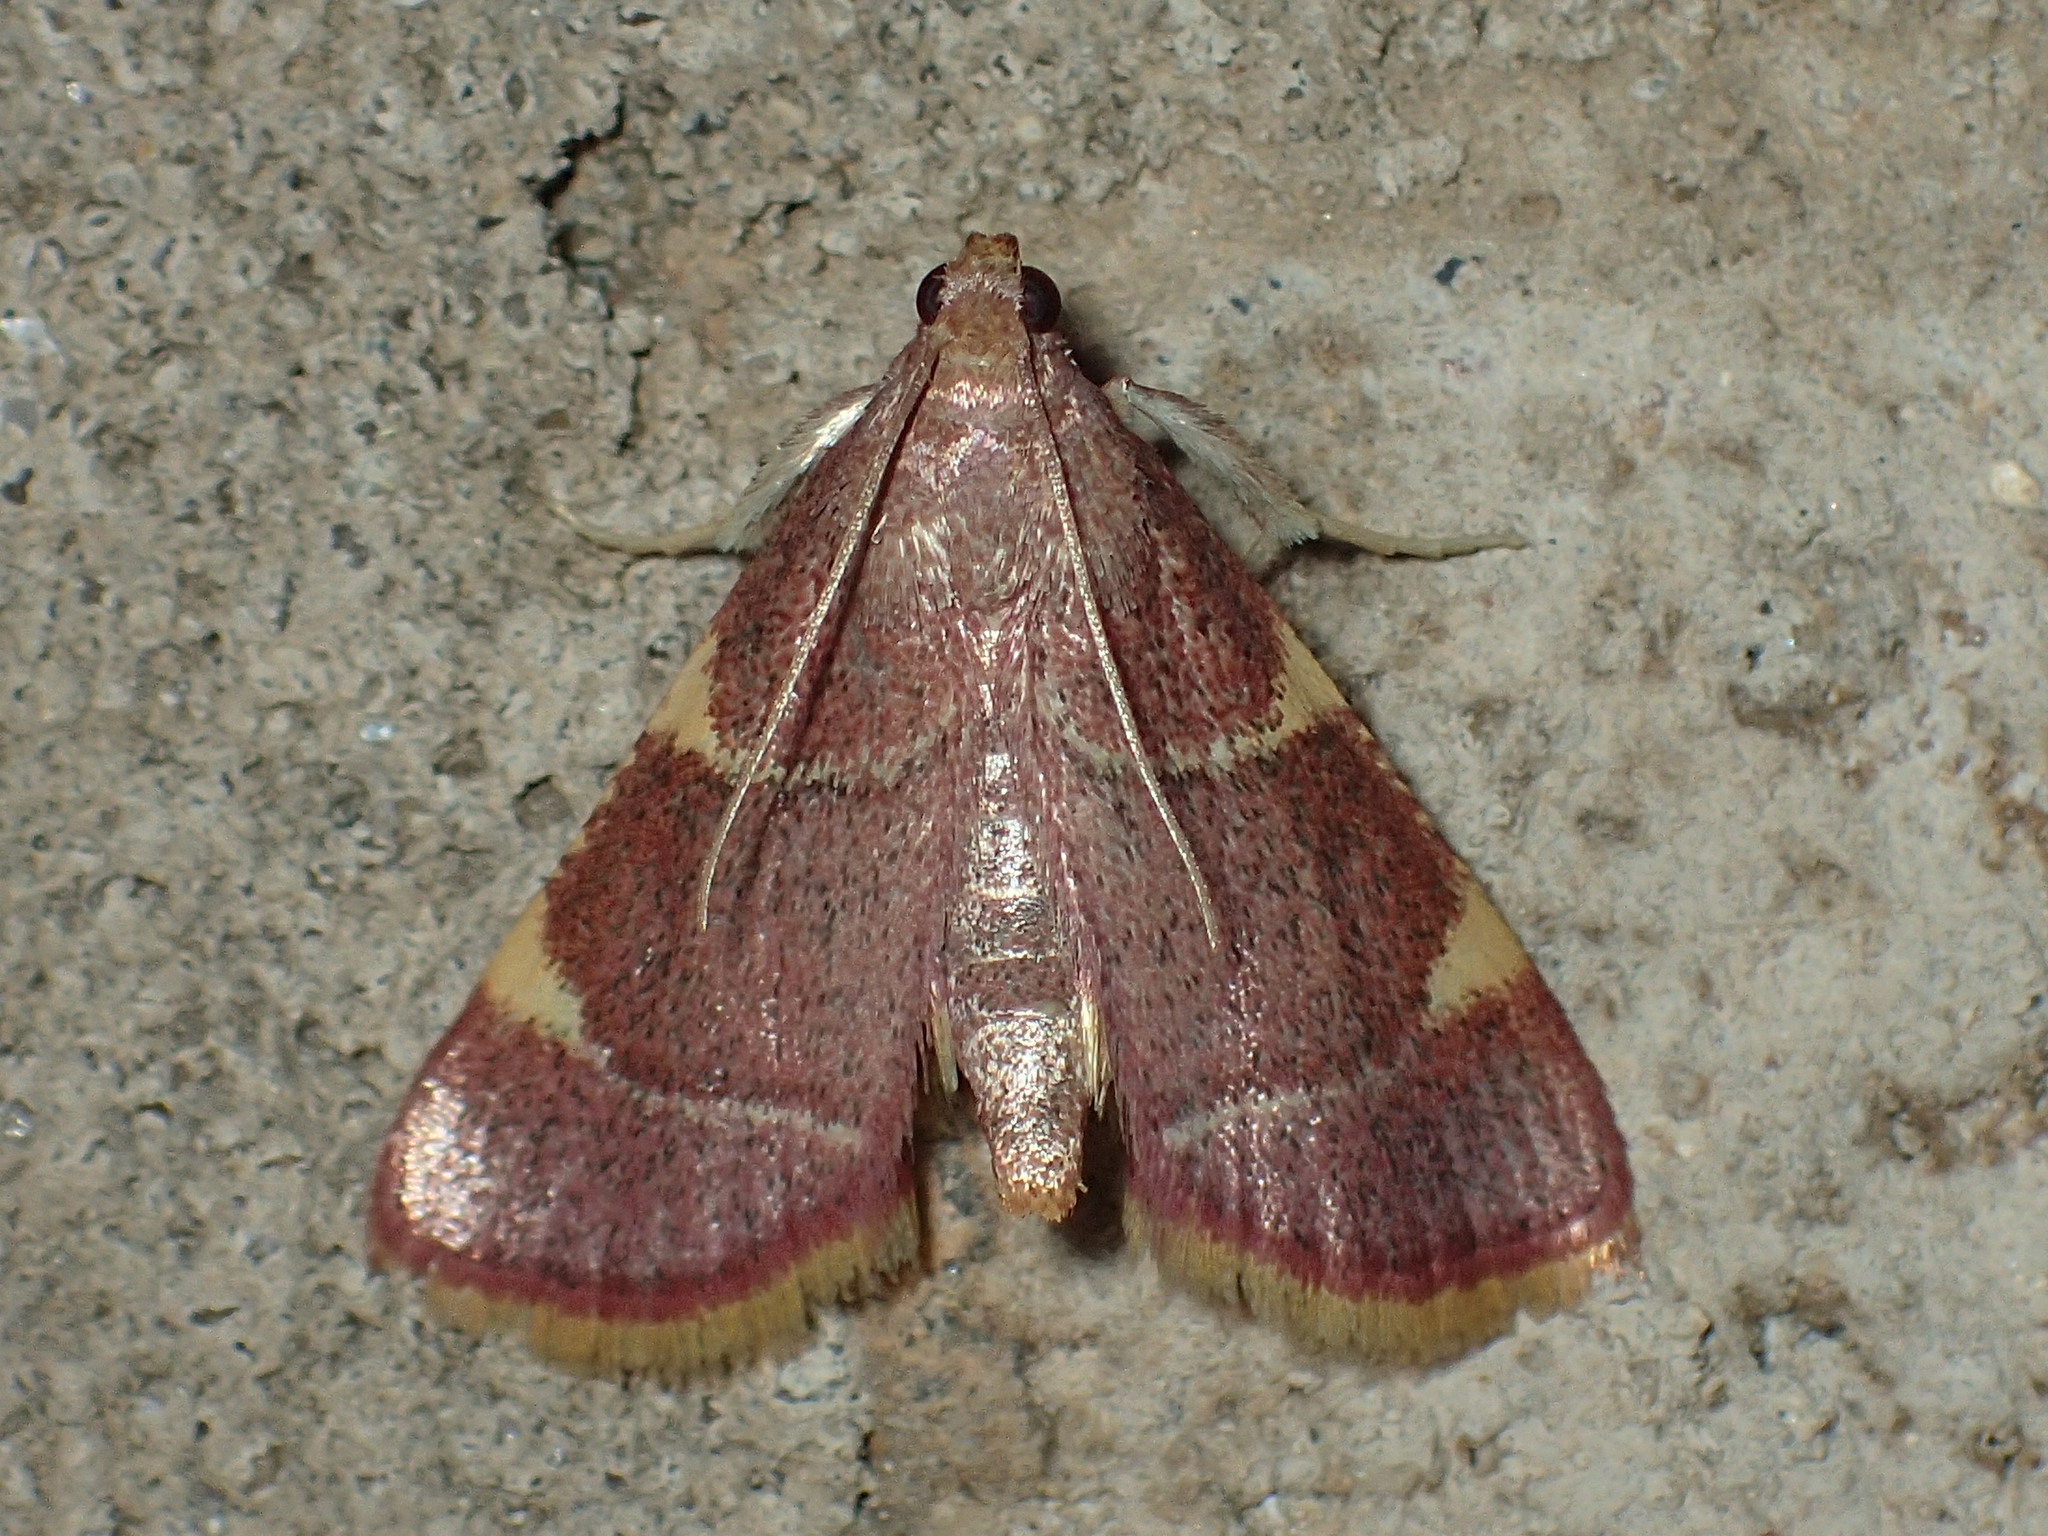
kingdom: Animalia
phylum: Arthropoda
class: Insecta
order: Lepidoptera
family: Pyralidae
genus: Hypsopygia
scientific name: Hypsopygia olinalis
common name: Yellow-fringed dolichomia moth
